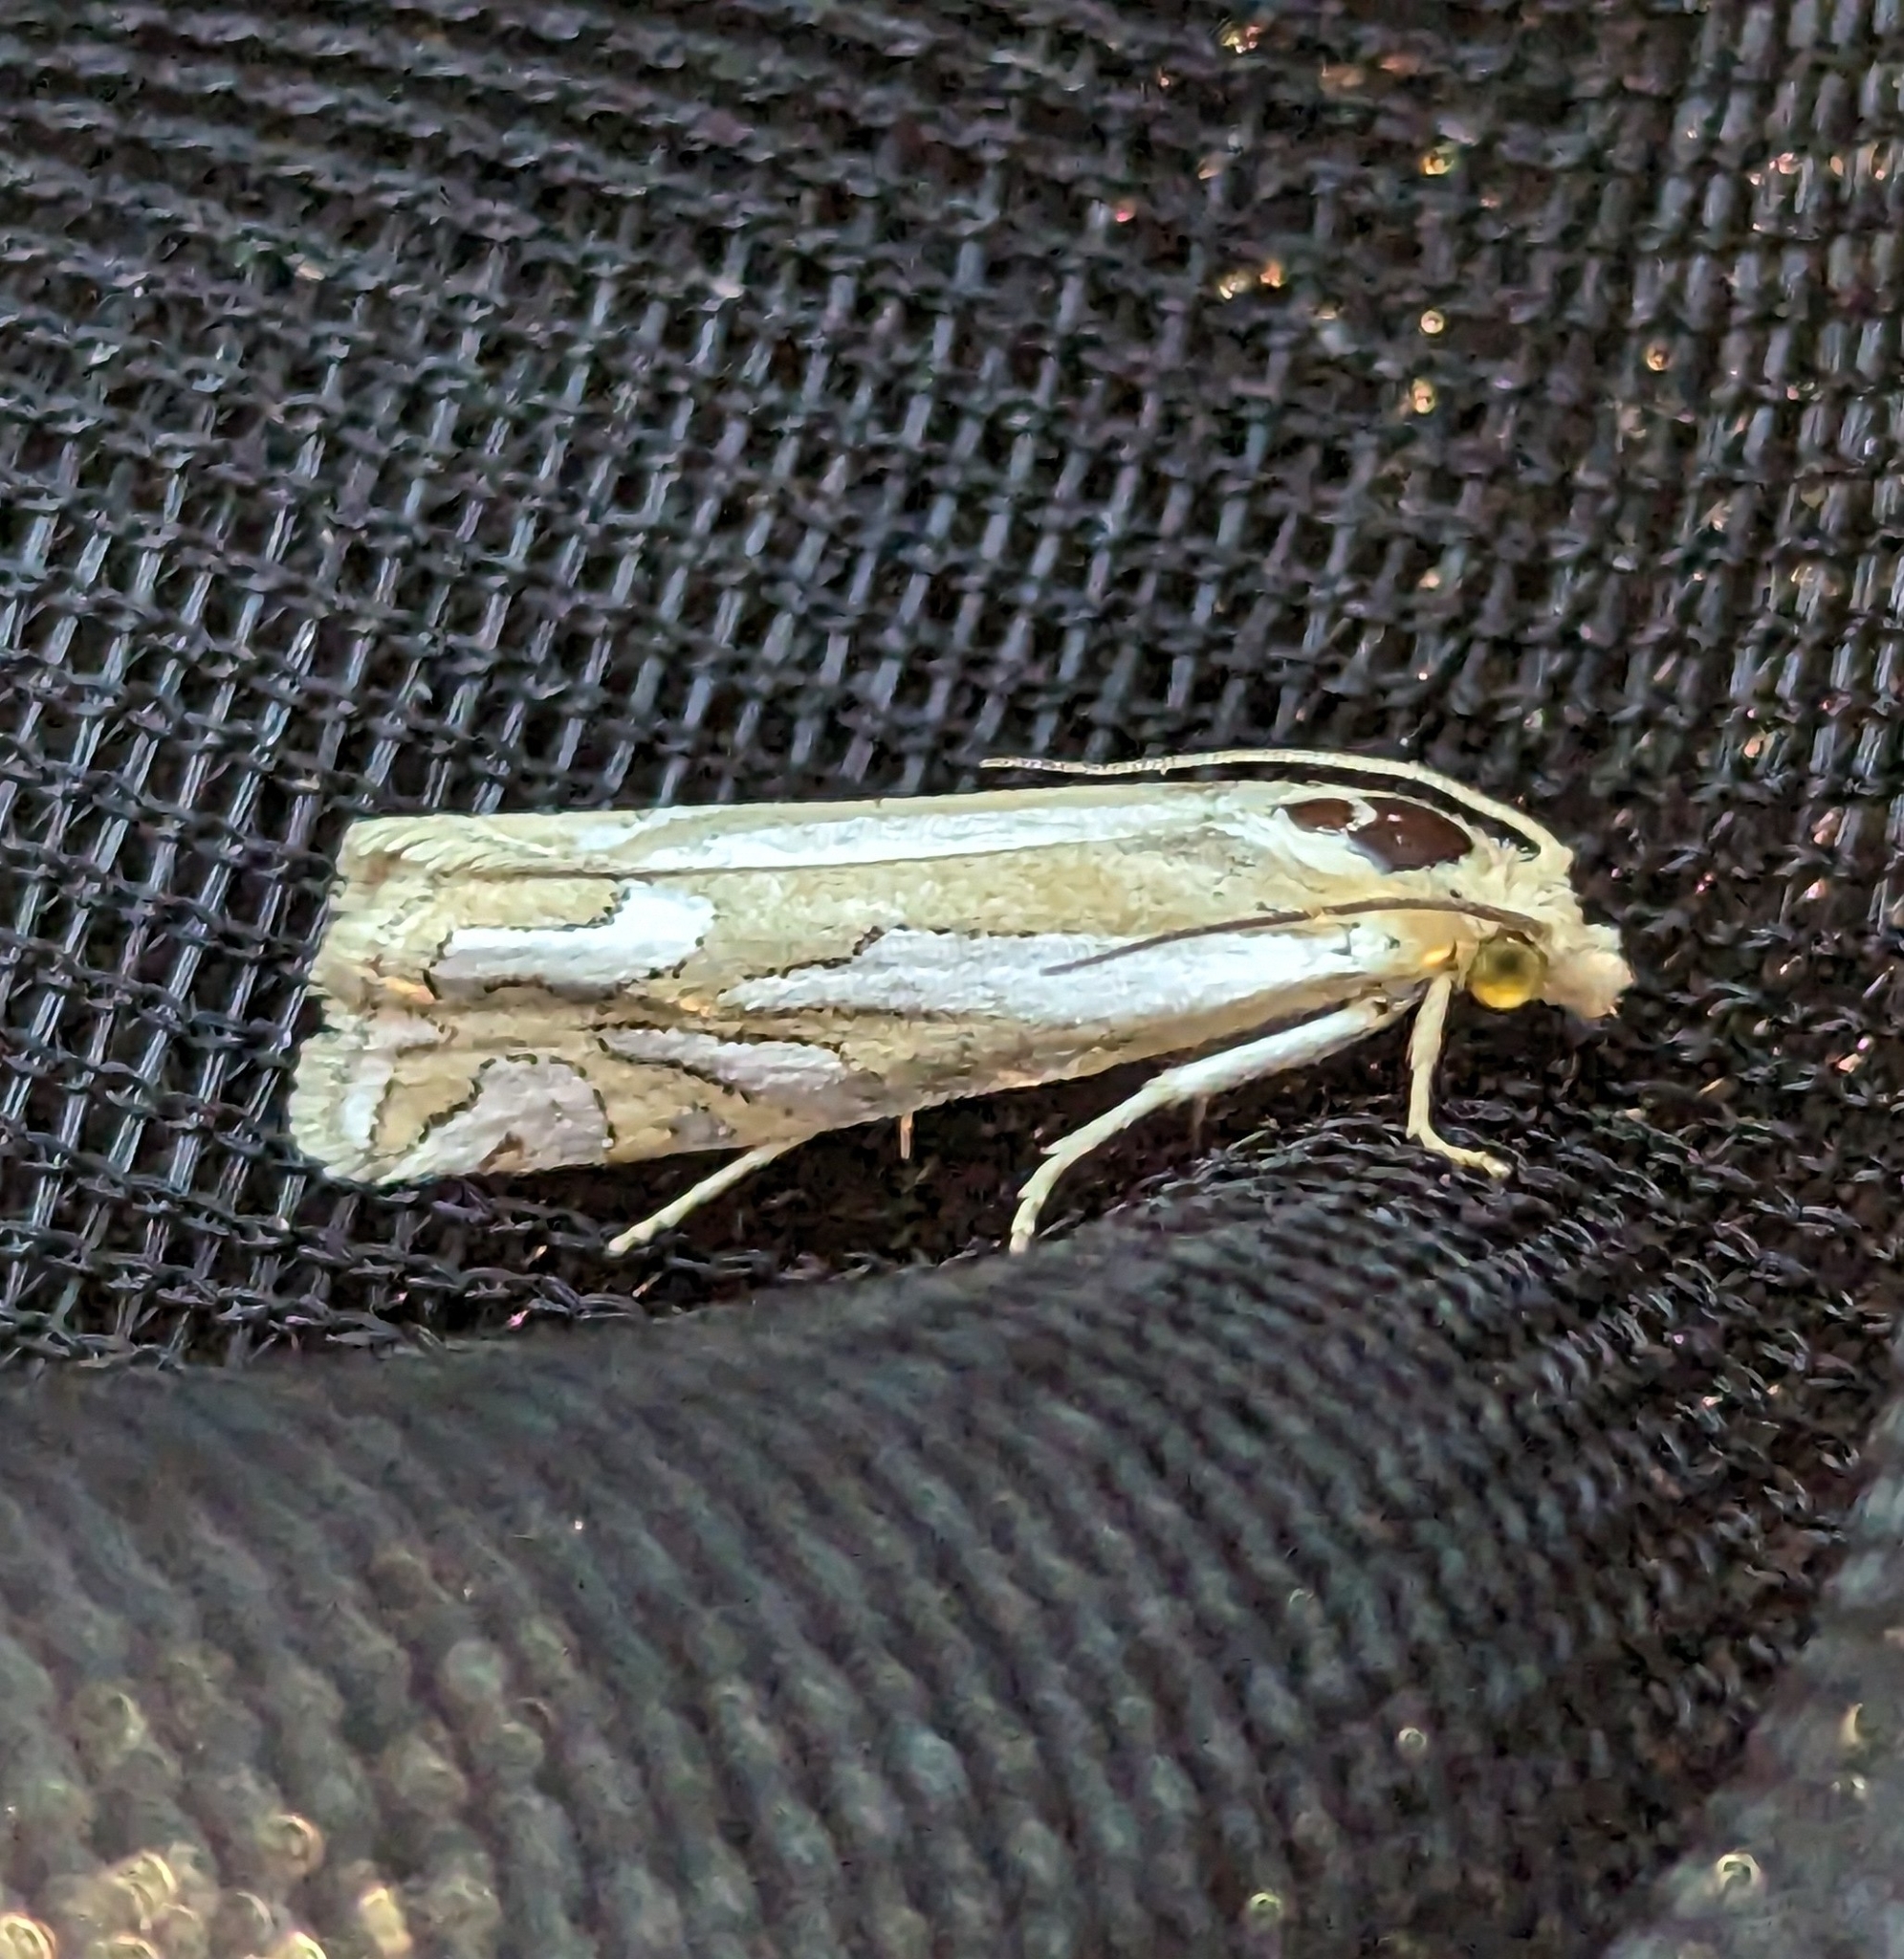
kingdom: Animalia
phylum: Arthropoda
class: Insecta
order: Lepidoptera
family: Tortricidae
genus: Pelochrista
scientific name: Pelochrista ridingsana
